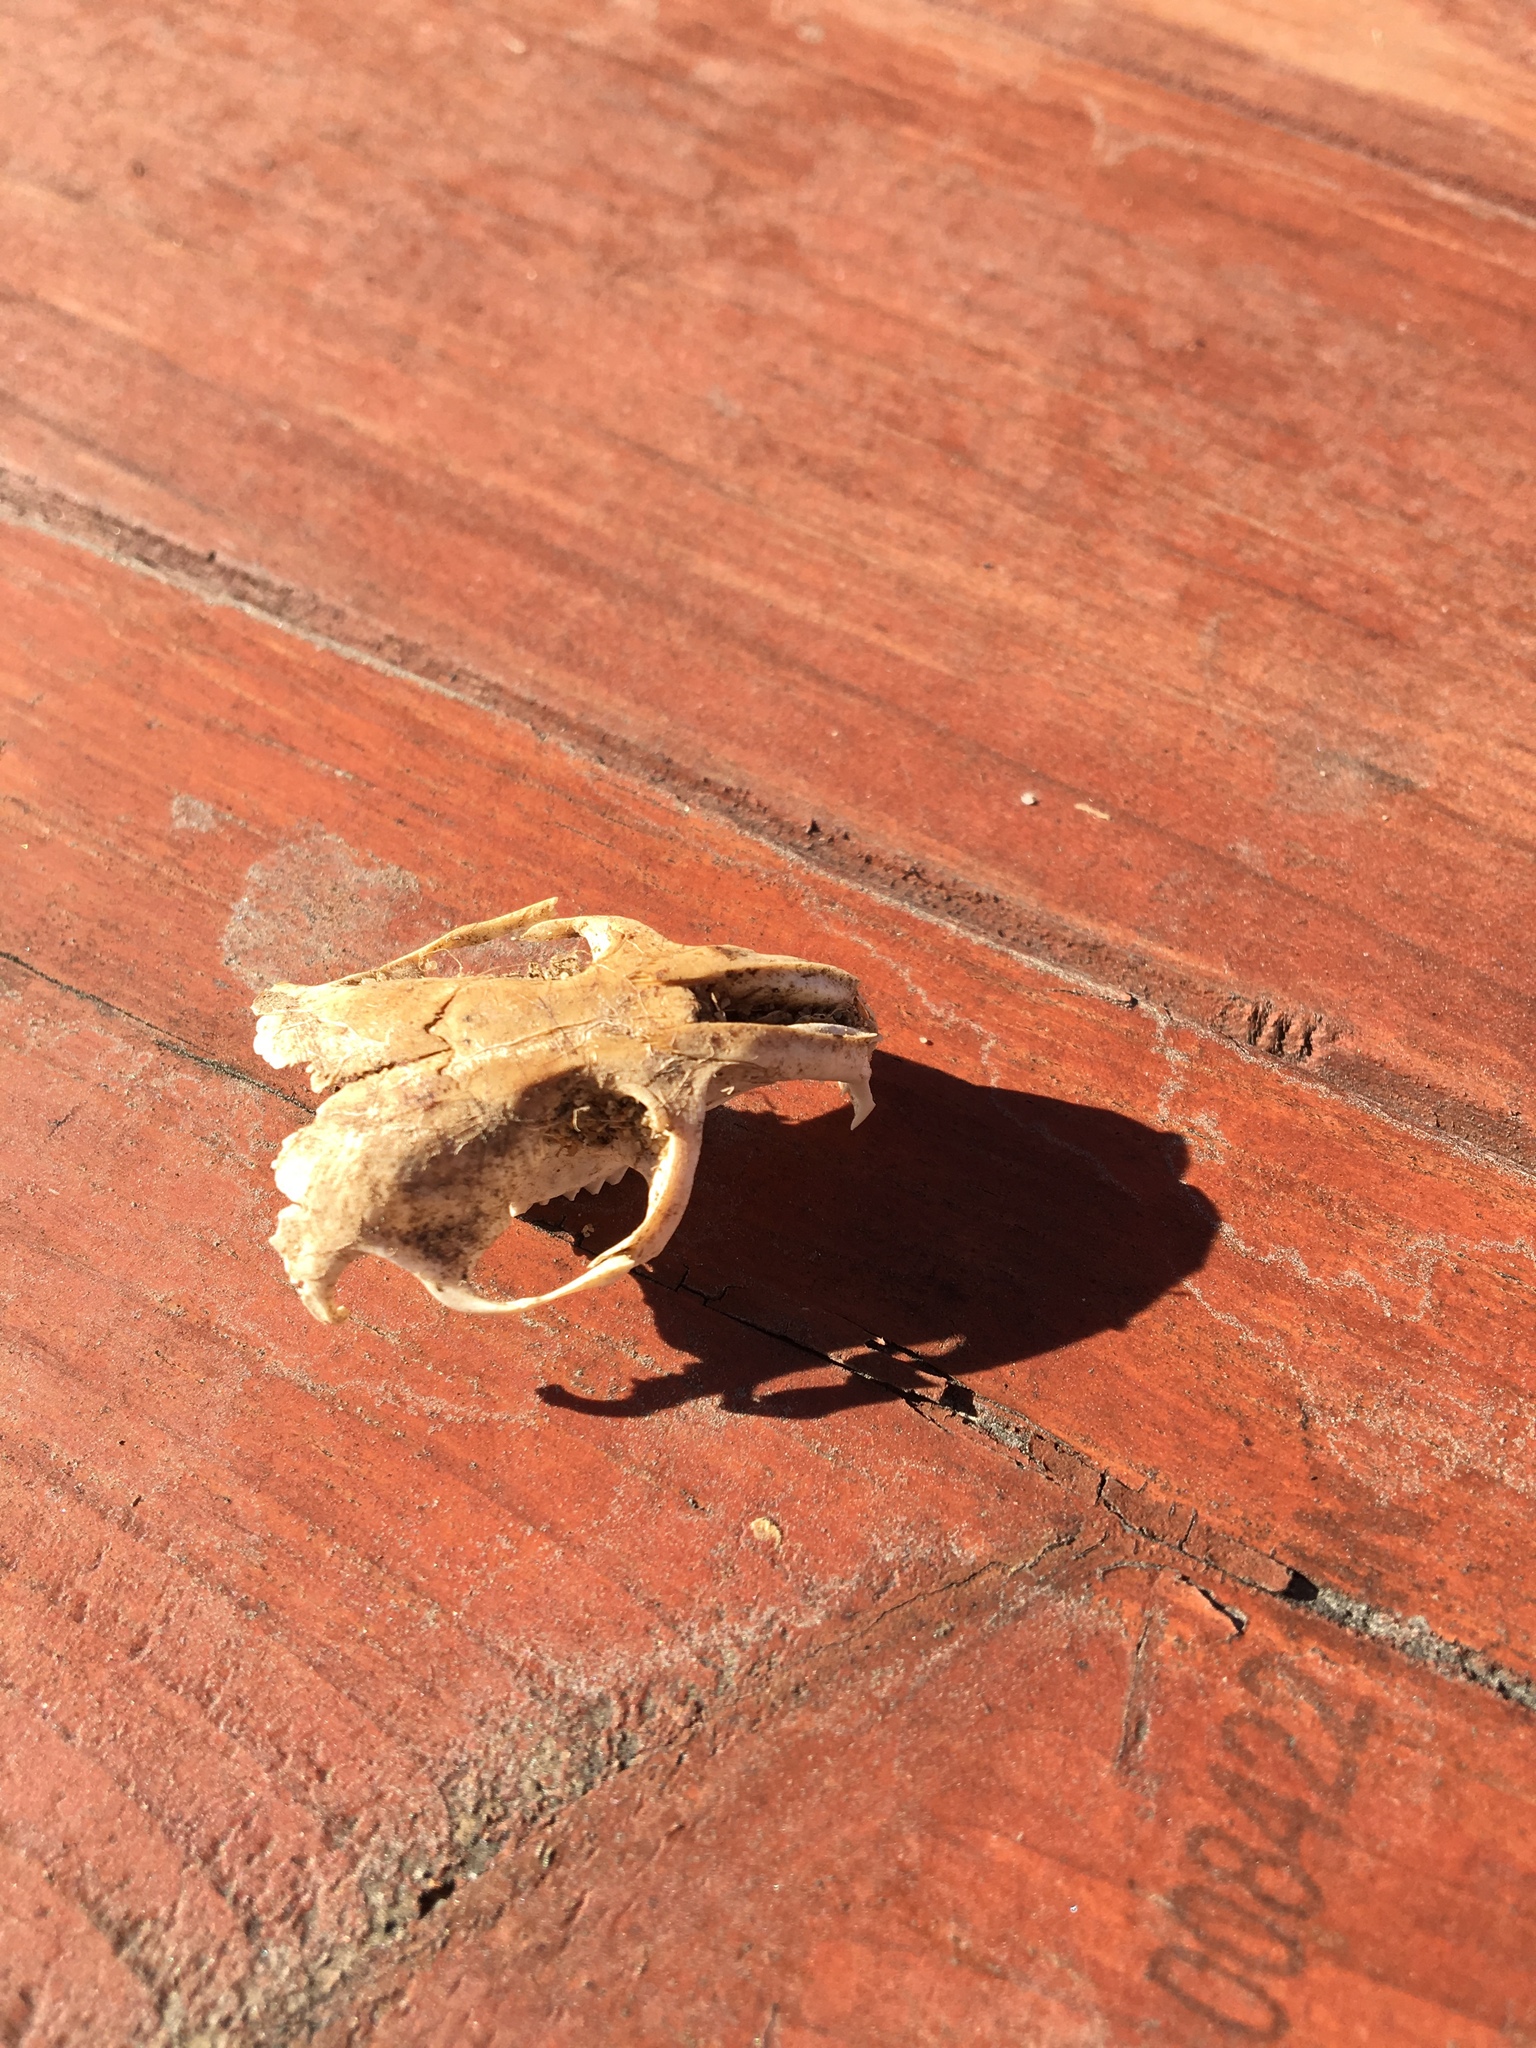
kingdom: Animalia
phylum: Chordata
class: Mammalia
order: Rodentia
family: Geomyidae
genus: Thomomys
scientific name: Thomomys bottae
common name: Botta's pocket gopher
